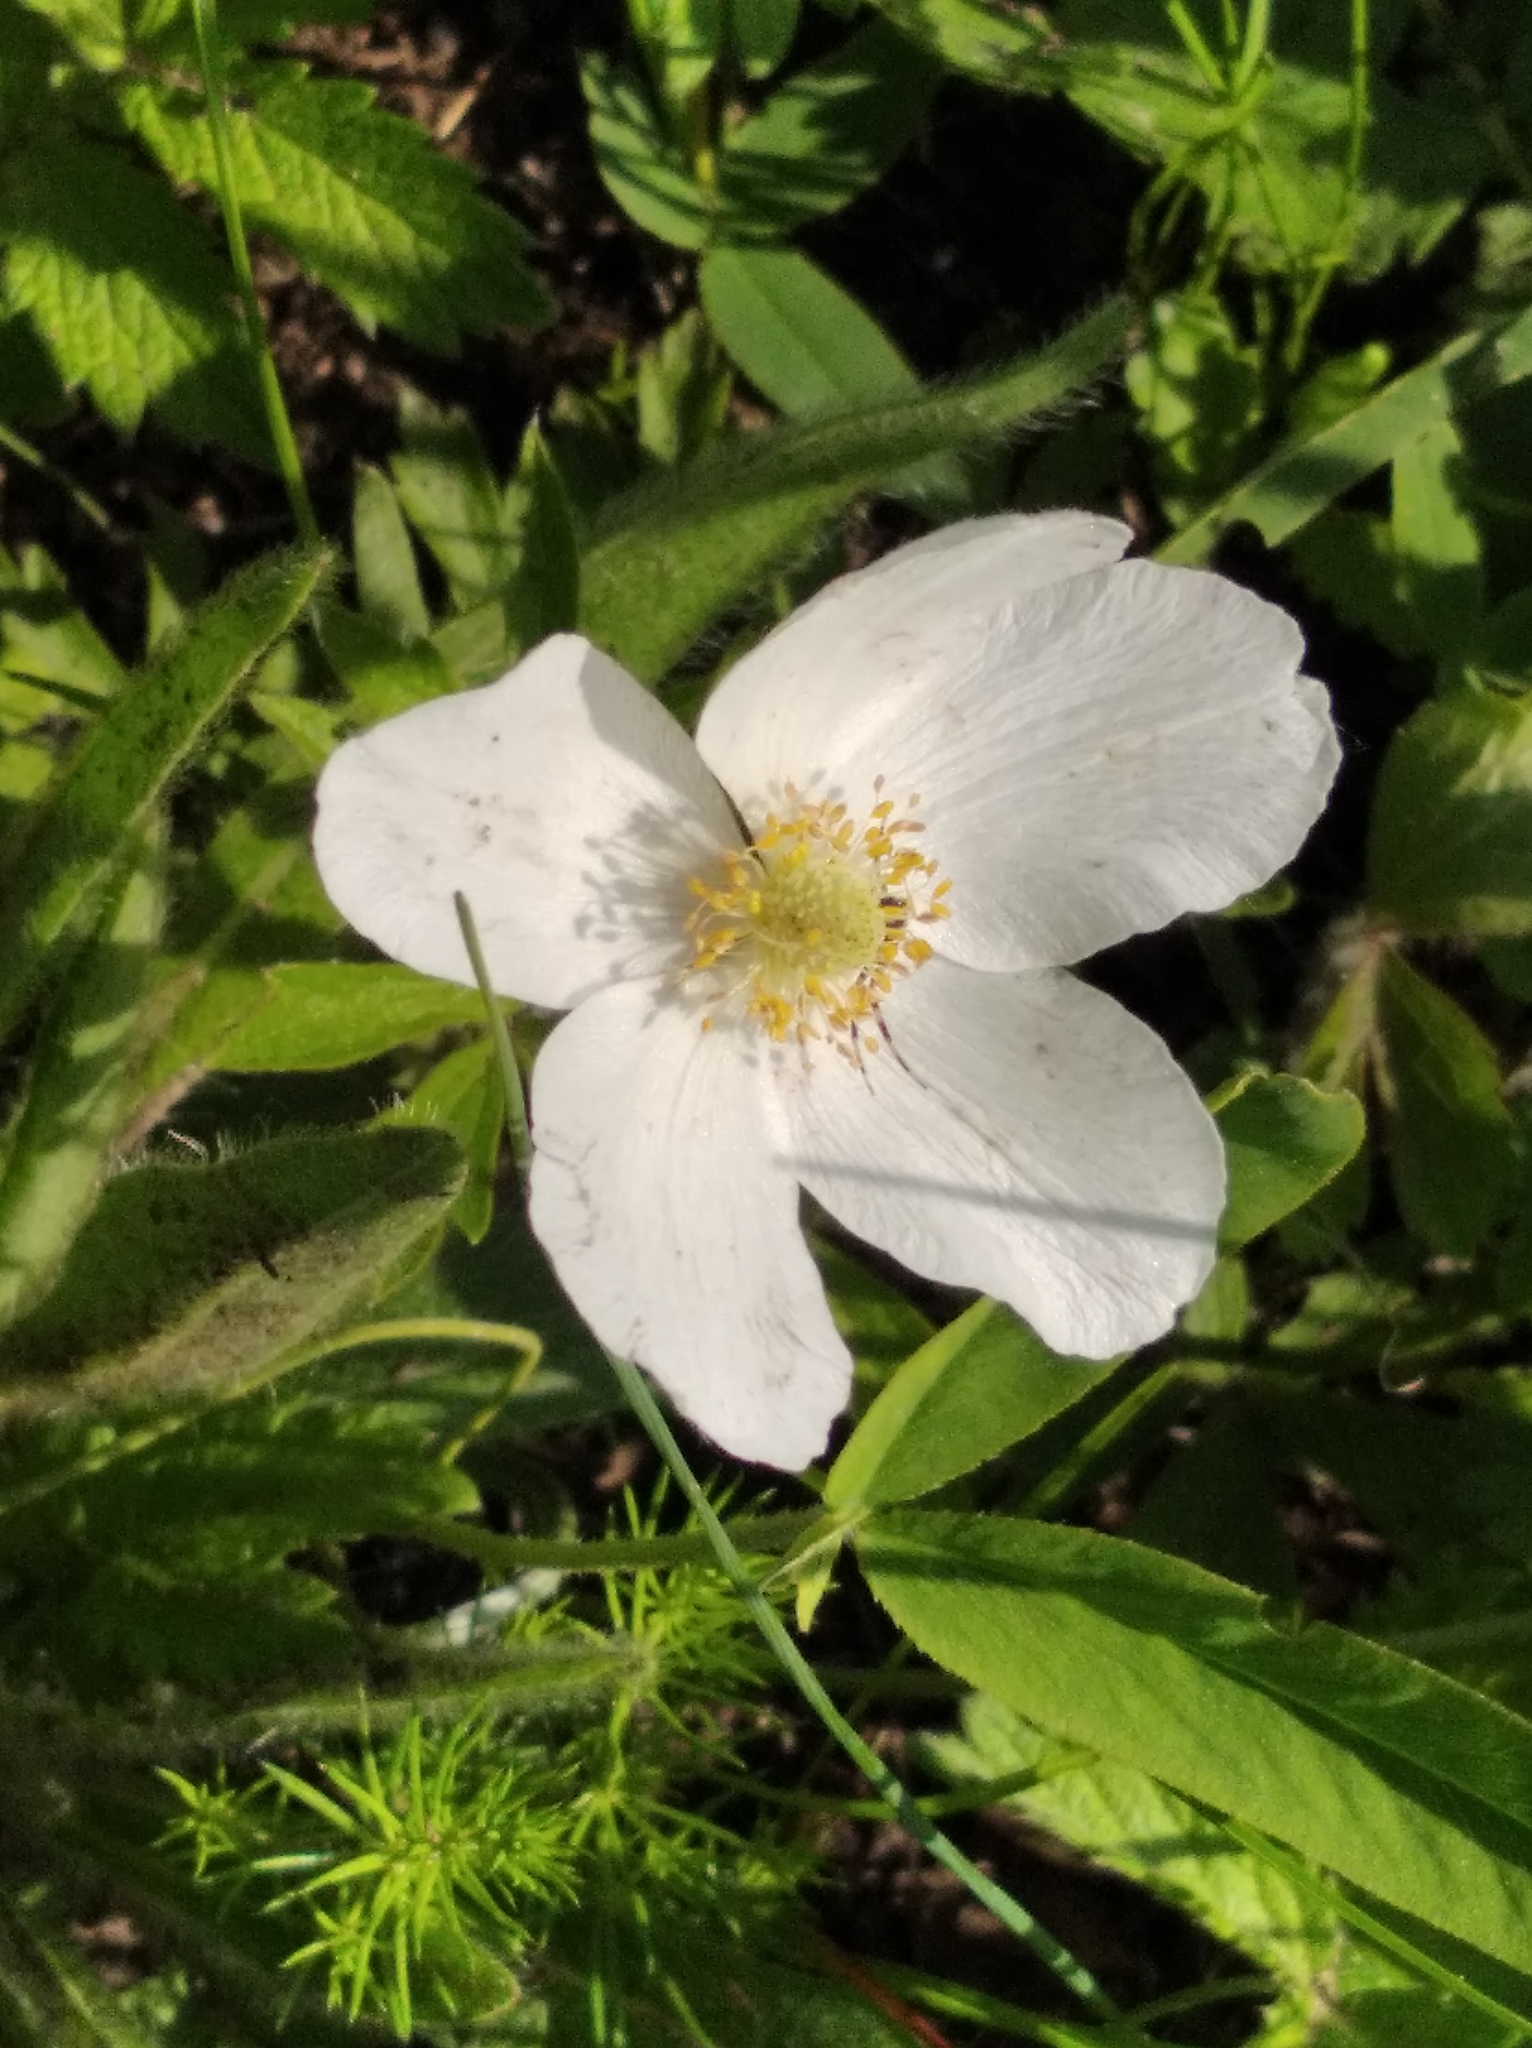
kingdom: Plantae
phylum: Tracheophyta
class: Magnoliopsida
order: Ranunculales
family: Ranunculaceae
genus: Anemone
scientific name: Anemone sylvestris
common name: Snowdrop anemone
